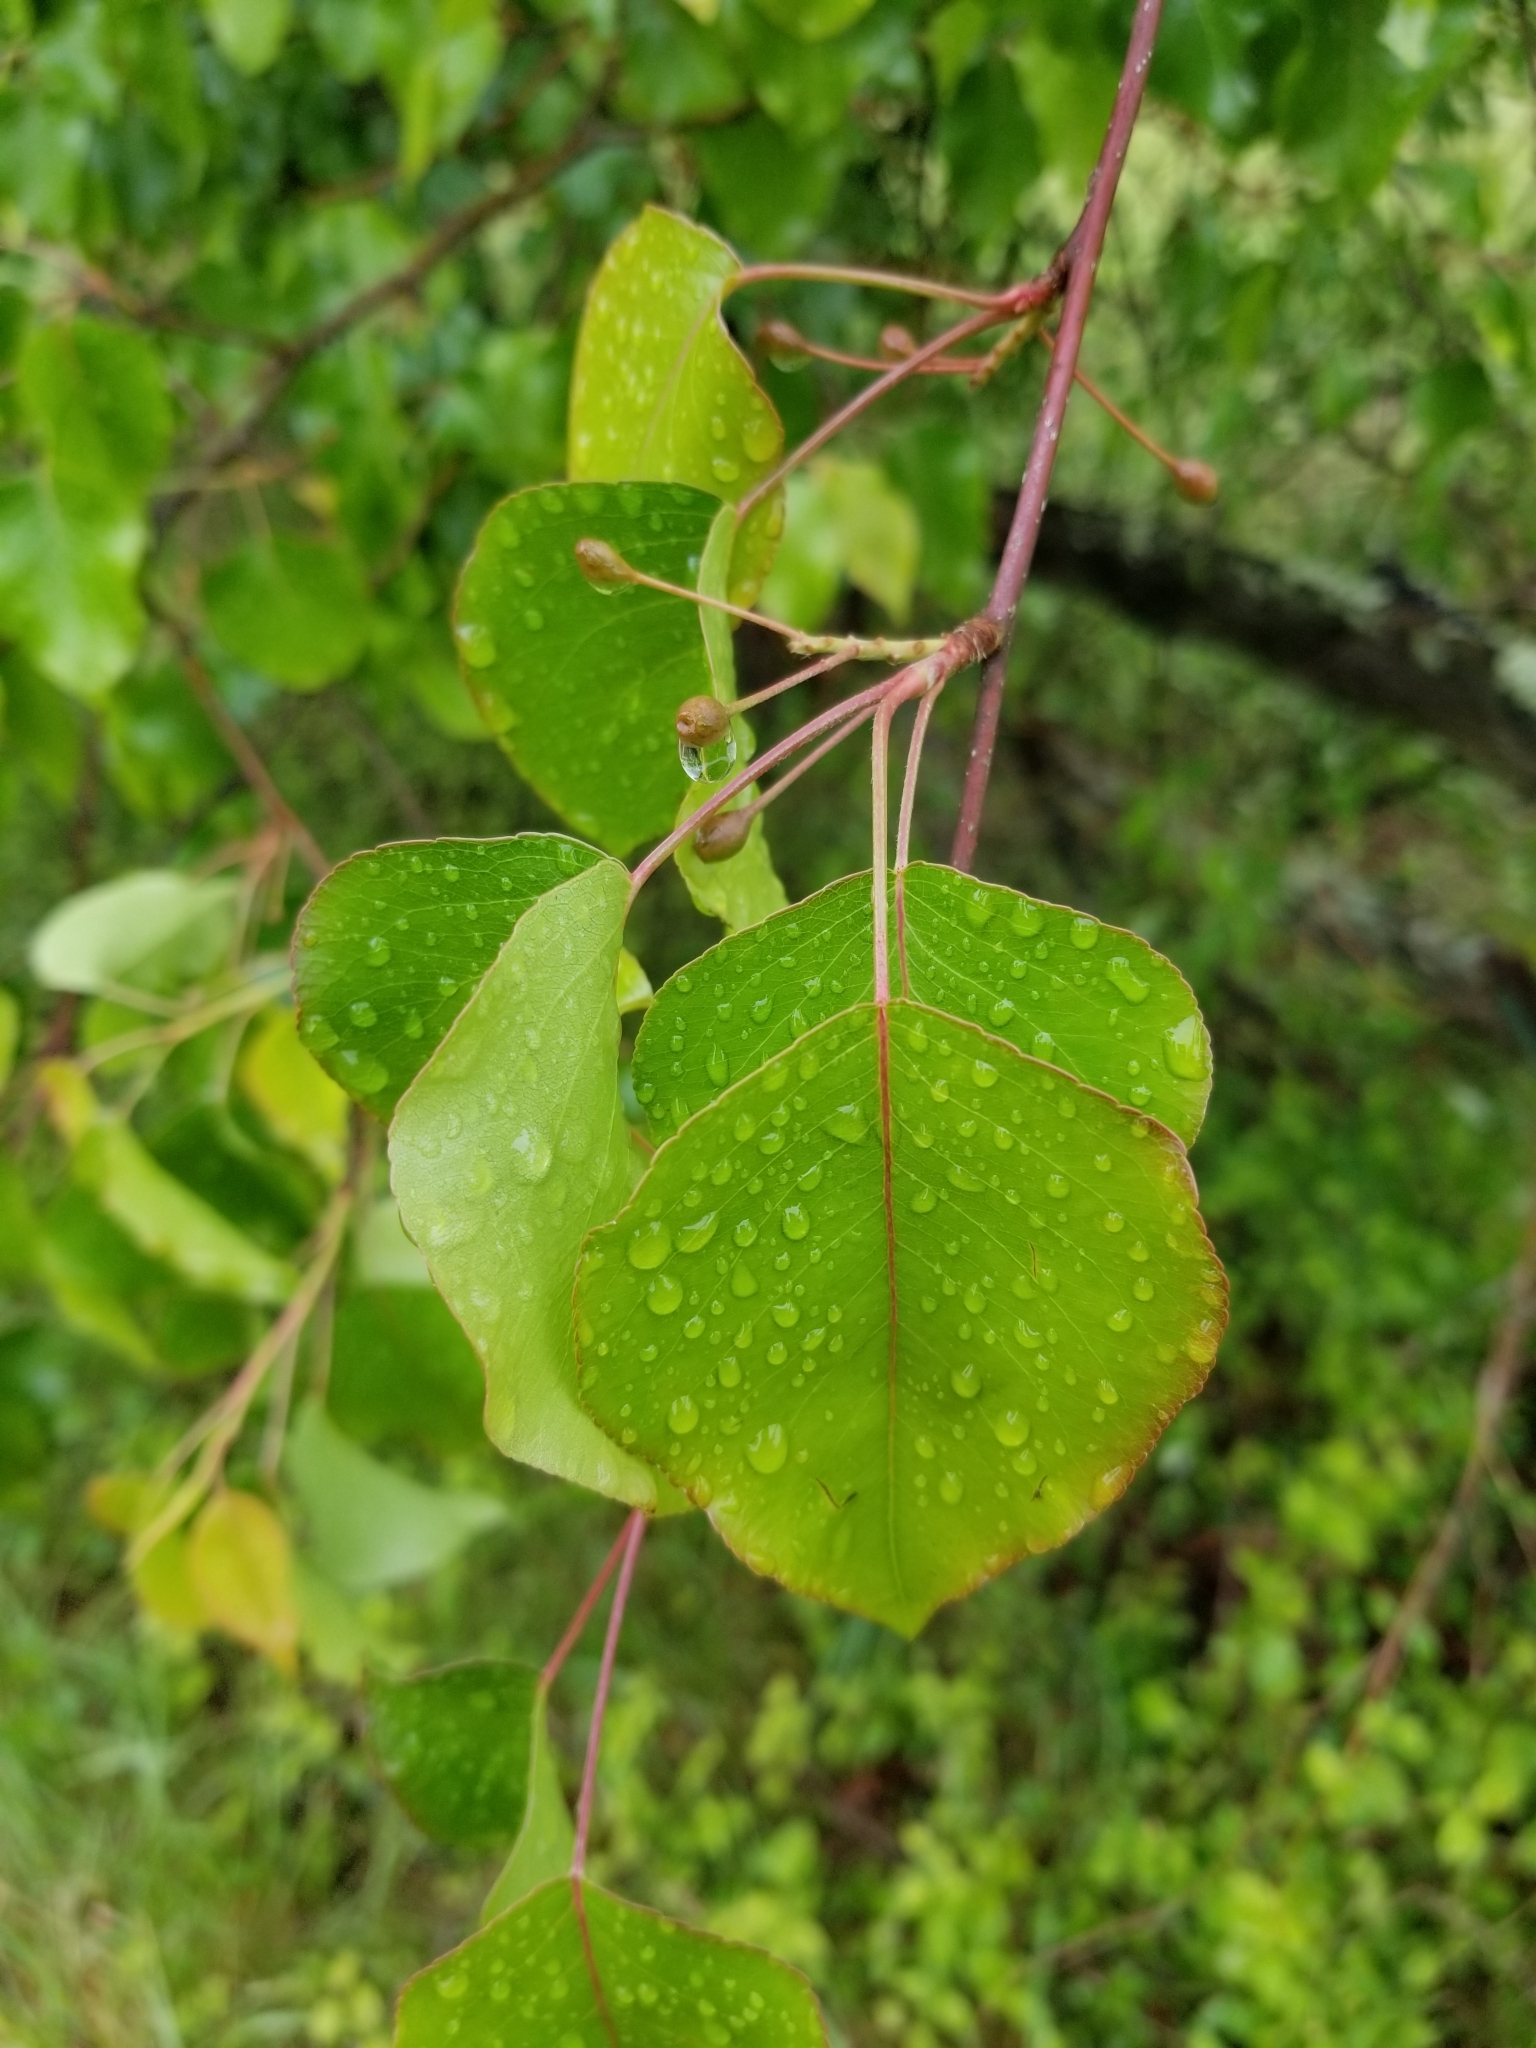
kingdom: Plantae
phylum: Tracheophyta
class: Magnoliopsida
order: Rosales
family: Rosaceae
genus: Pyrus
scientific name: Pyrus calleryana
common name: Callery pear
